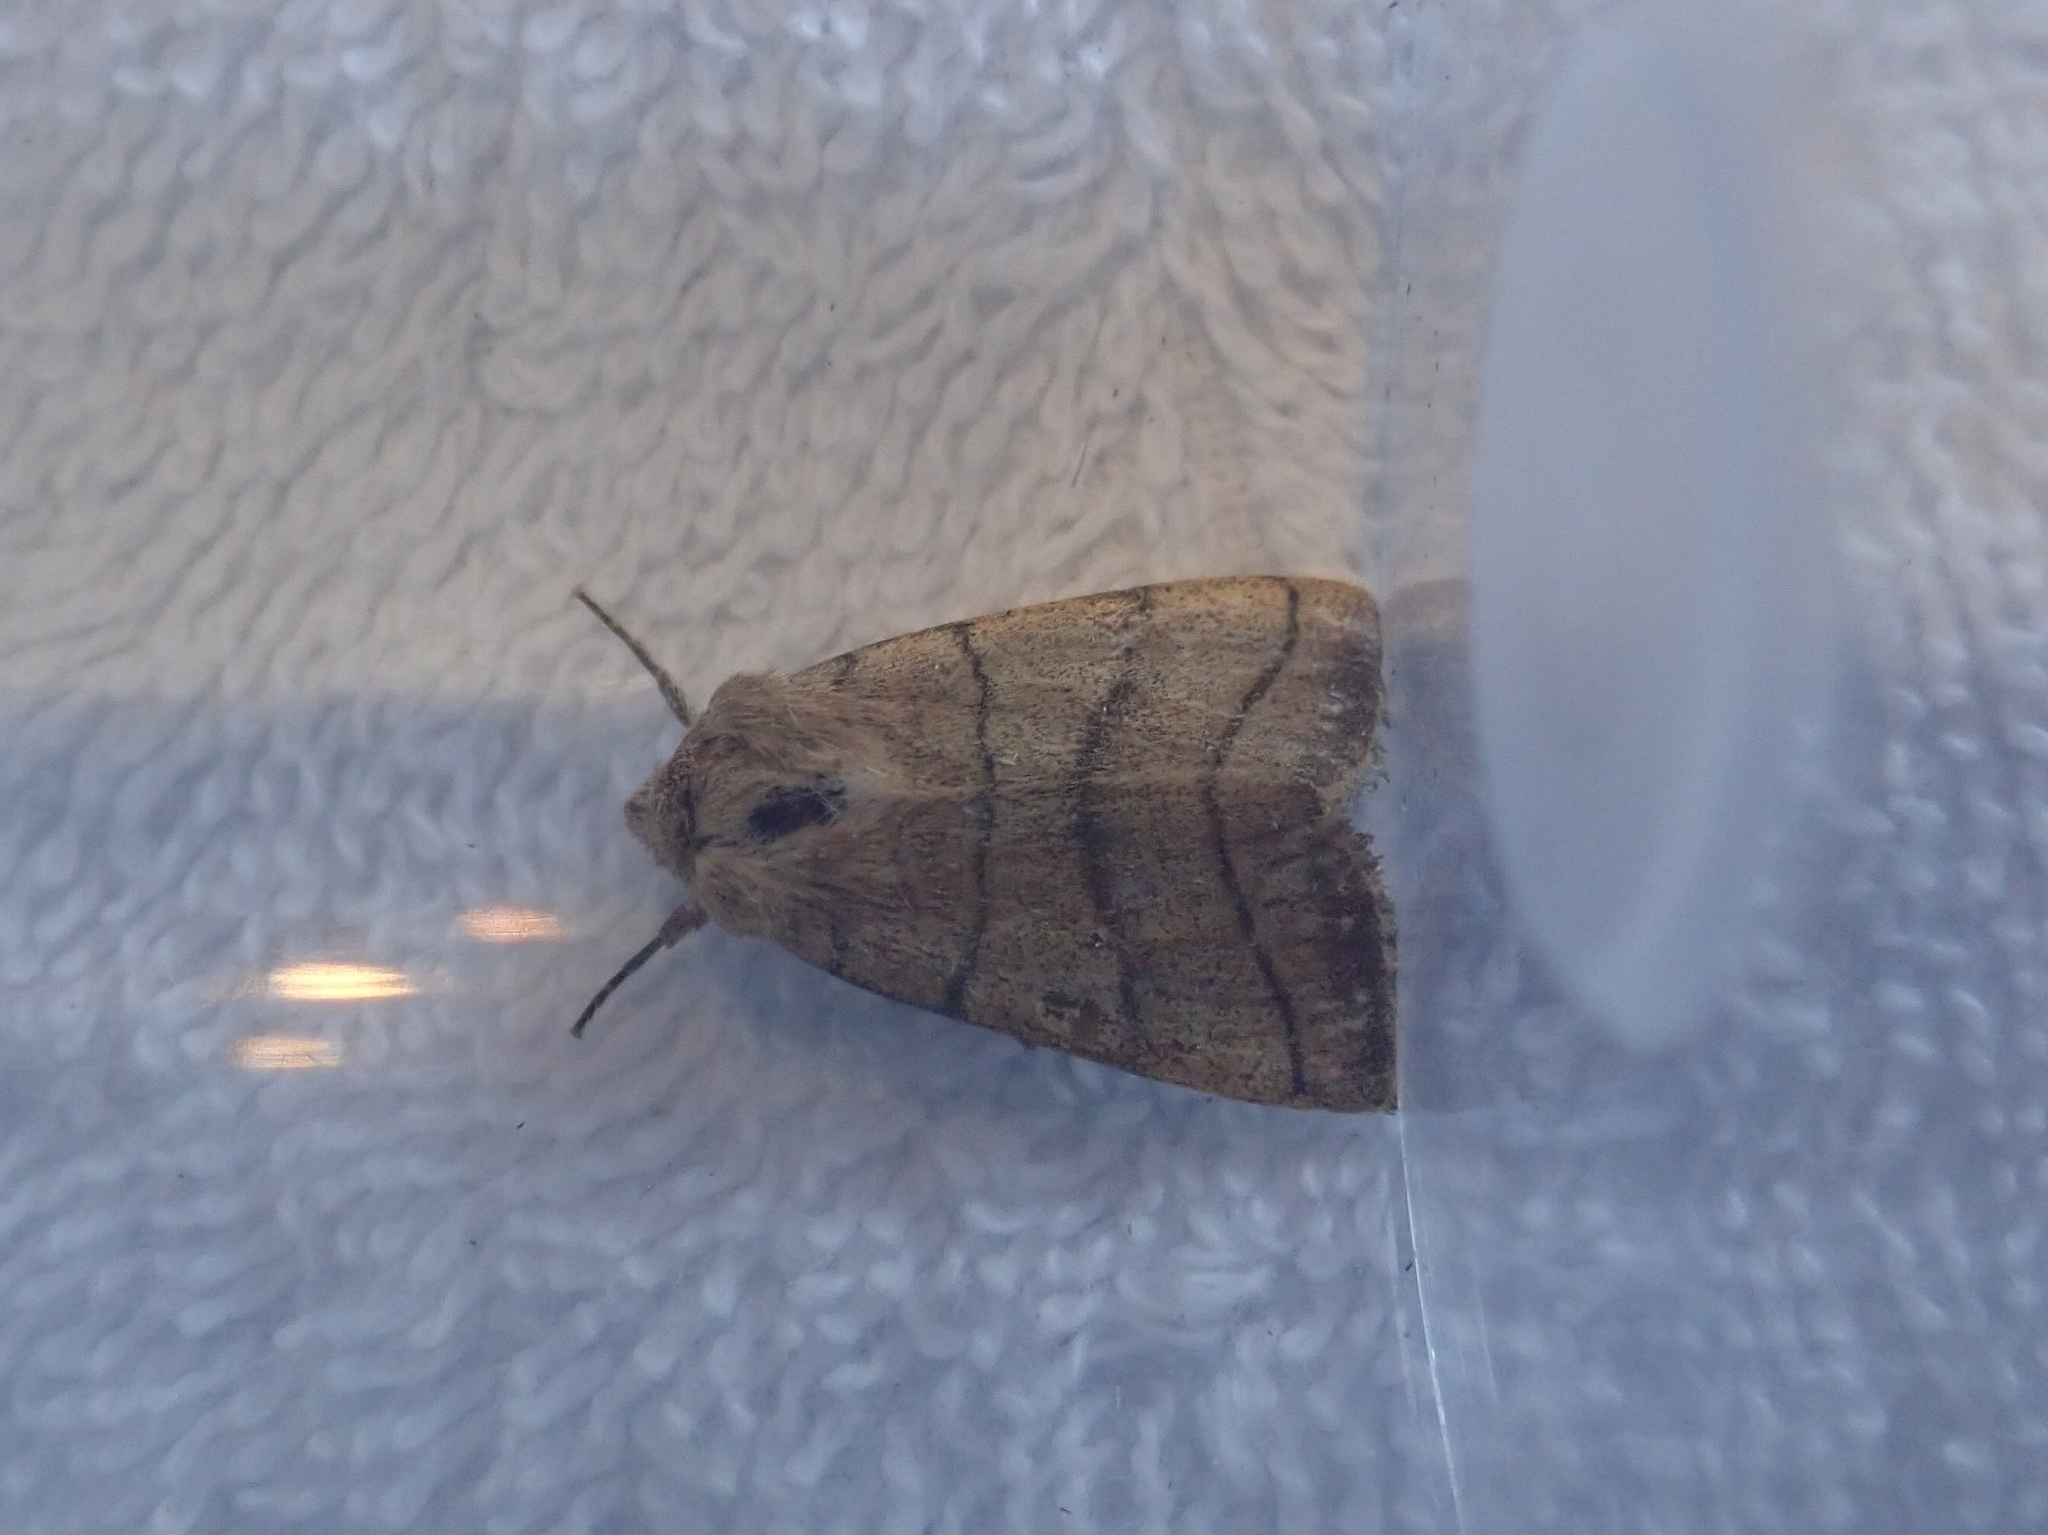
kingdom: Animalia
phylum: Arthropoda
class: Insecta
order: Lepidoptera
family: Noctuidae
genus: Charanyca
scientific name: Charanyca trigrammica
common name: Treble lines
